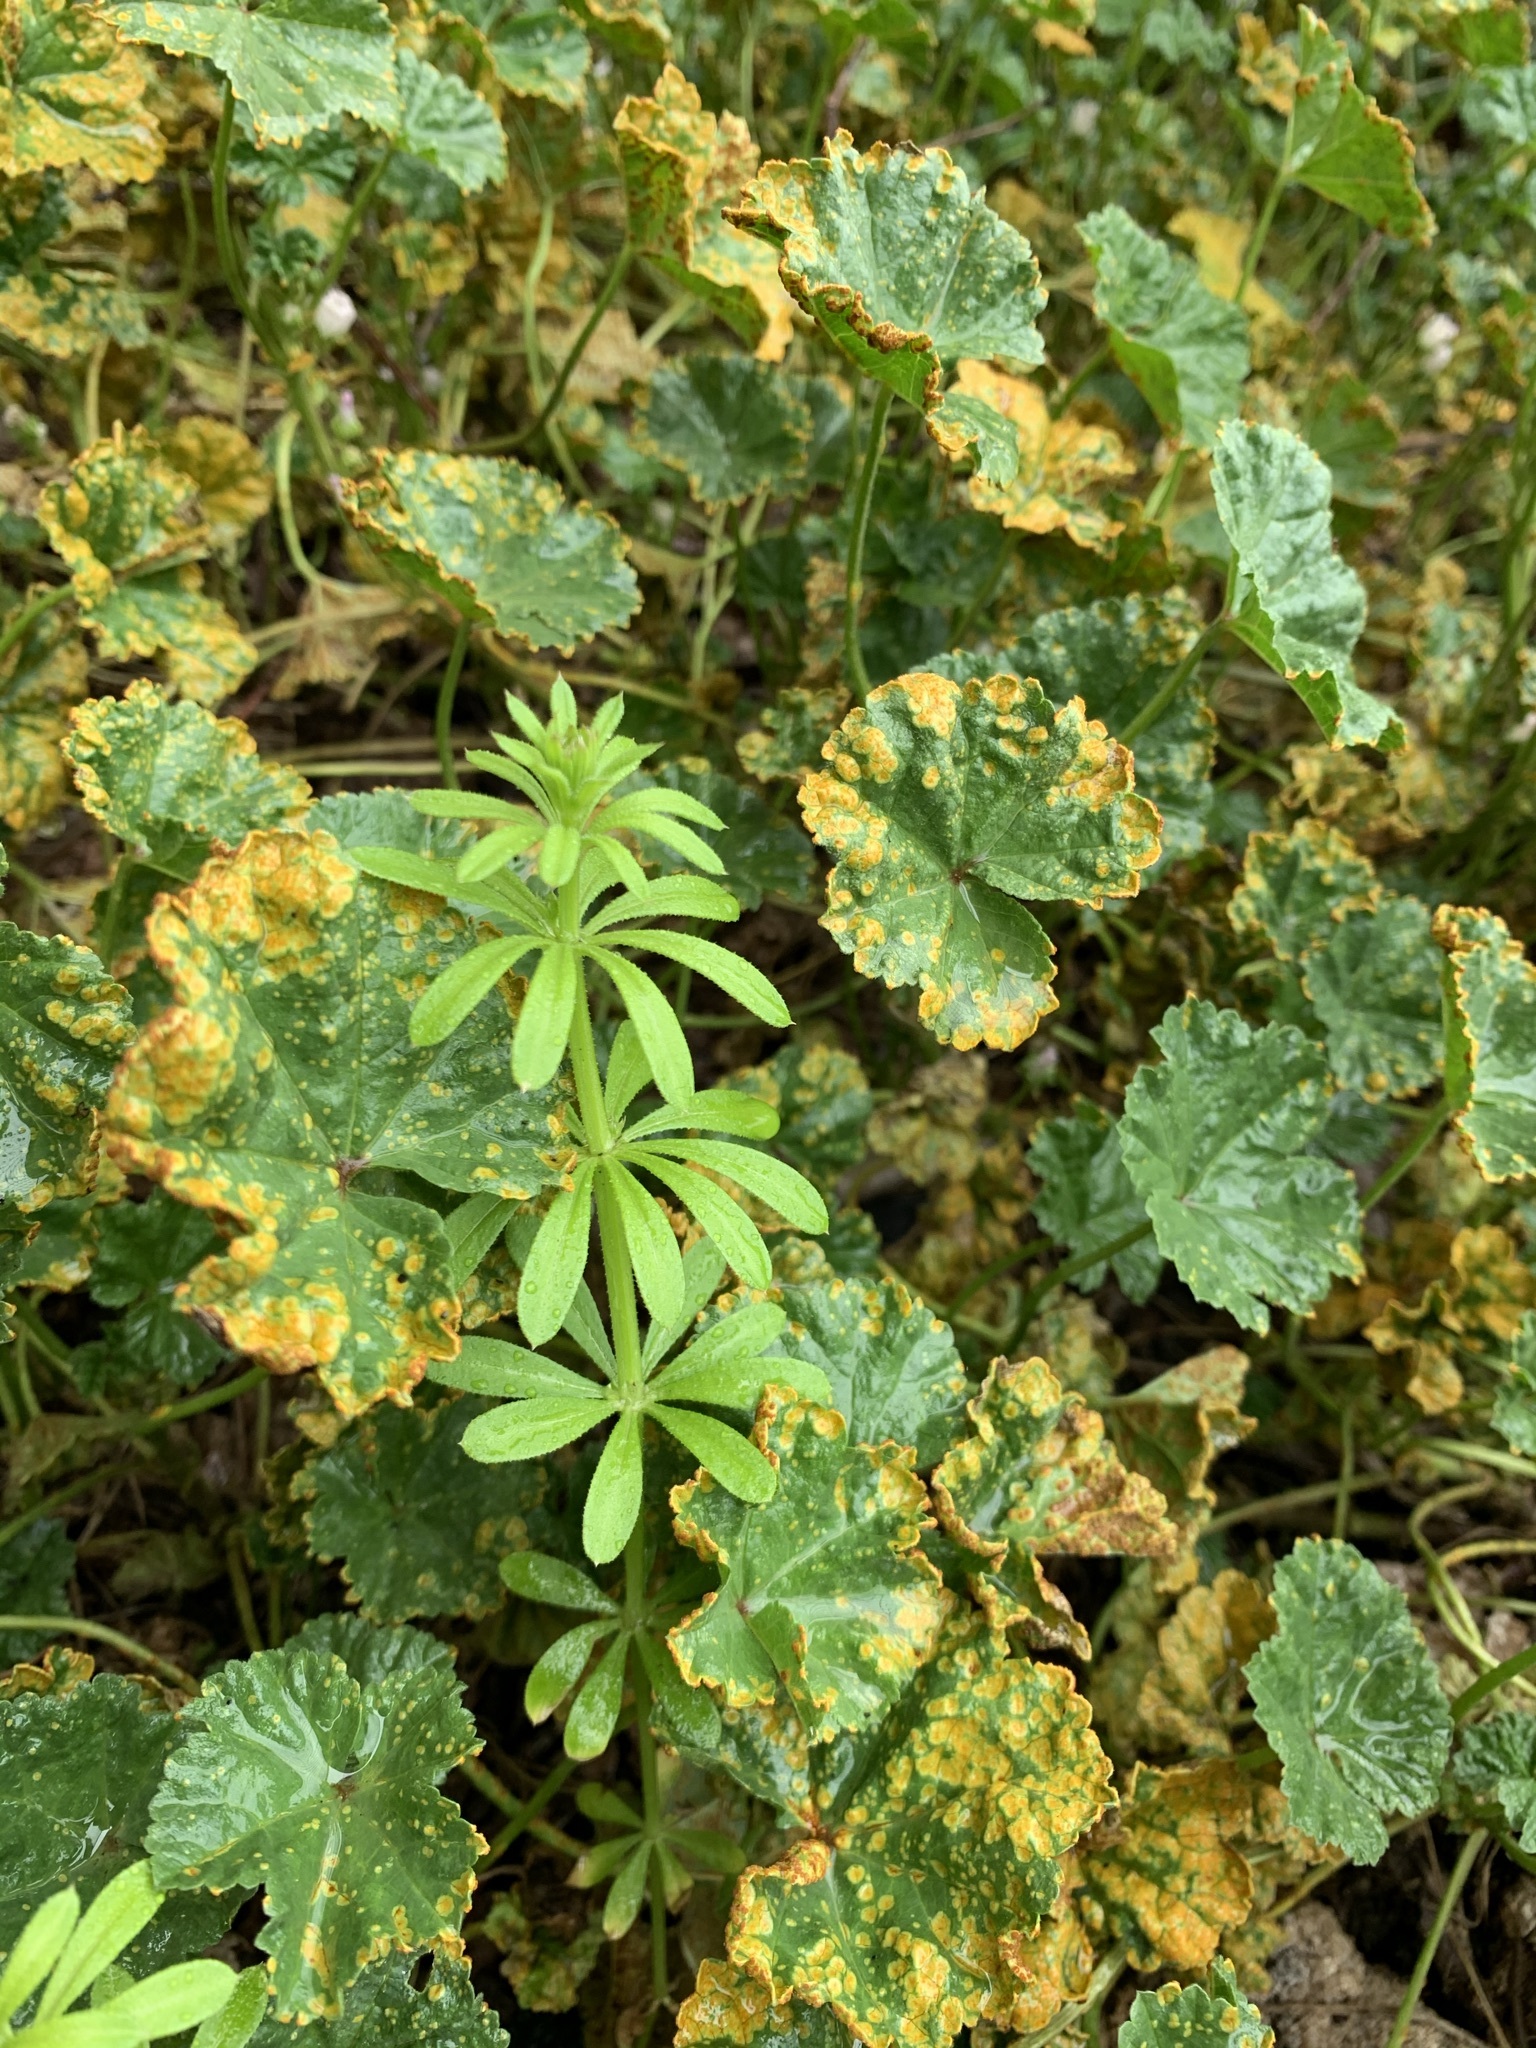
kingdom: Plantae
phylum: Tracheophyta
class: Magnoliopsida
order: Gentianales
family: Rubiaceae
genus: Galium
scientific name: Galium aparine
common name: Cleavers
